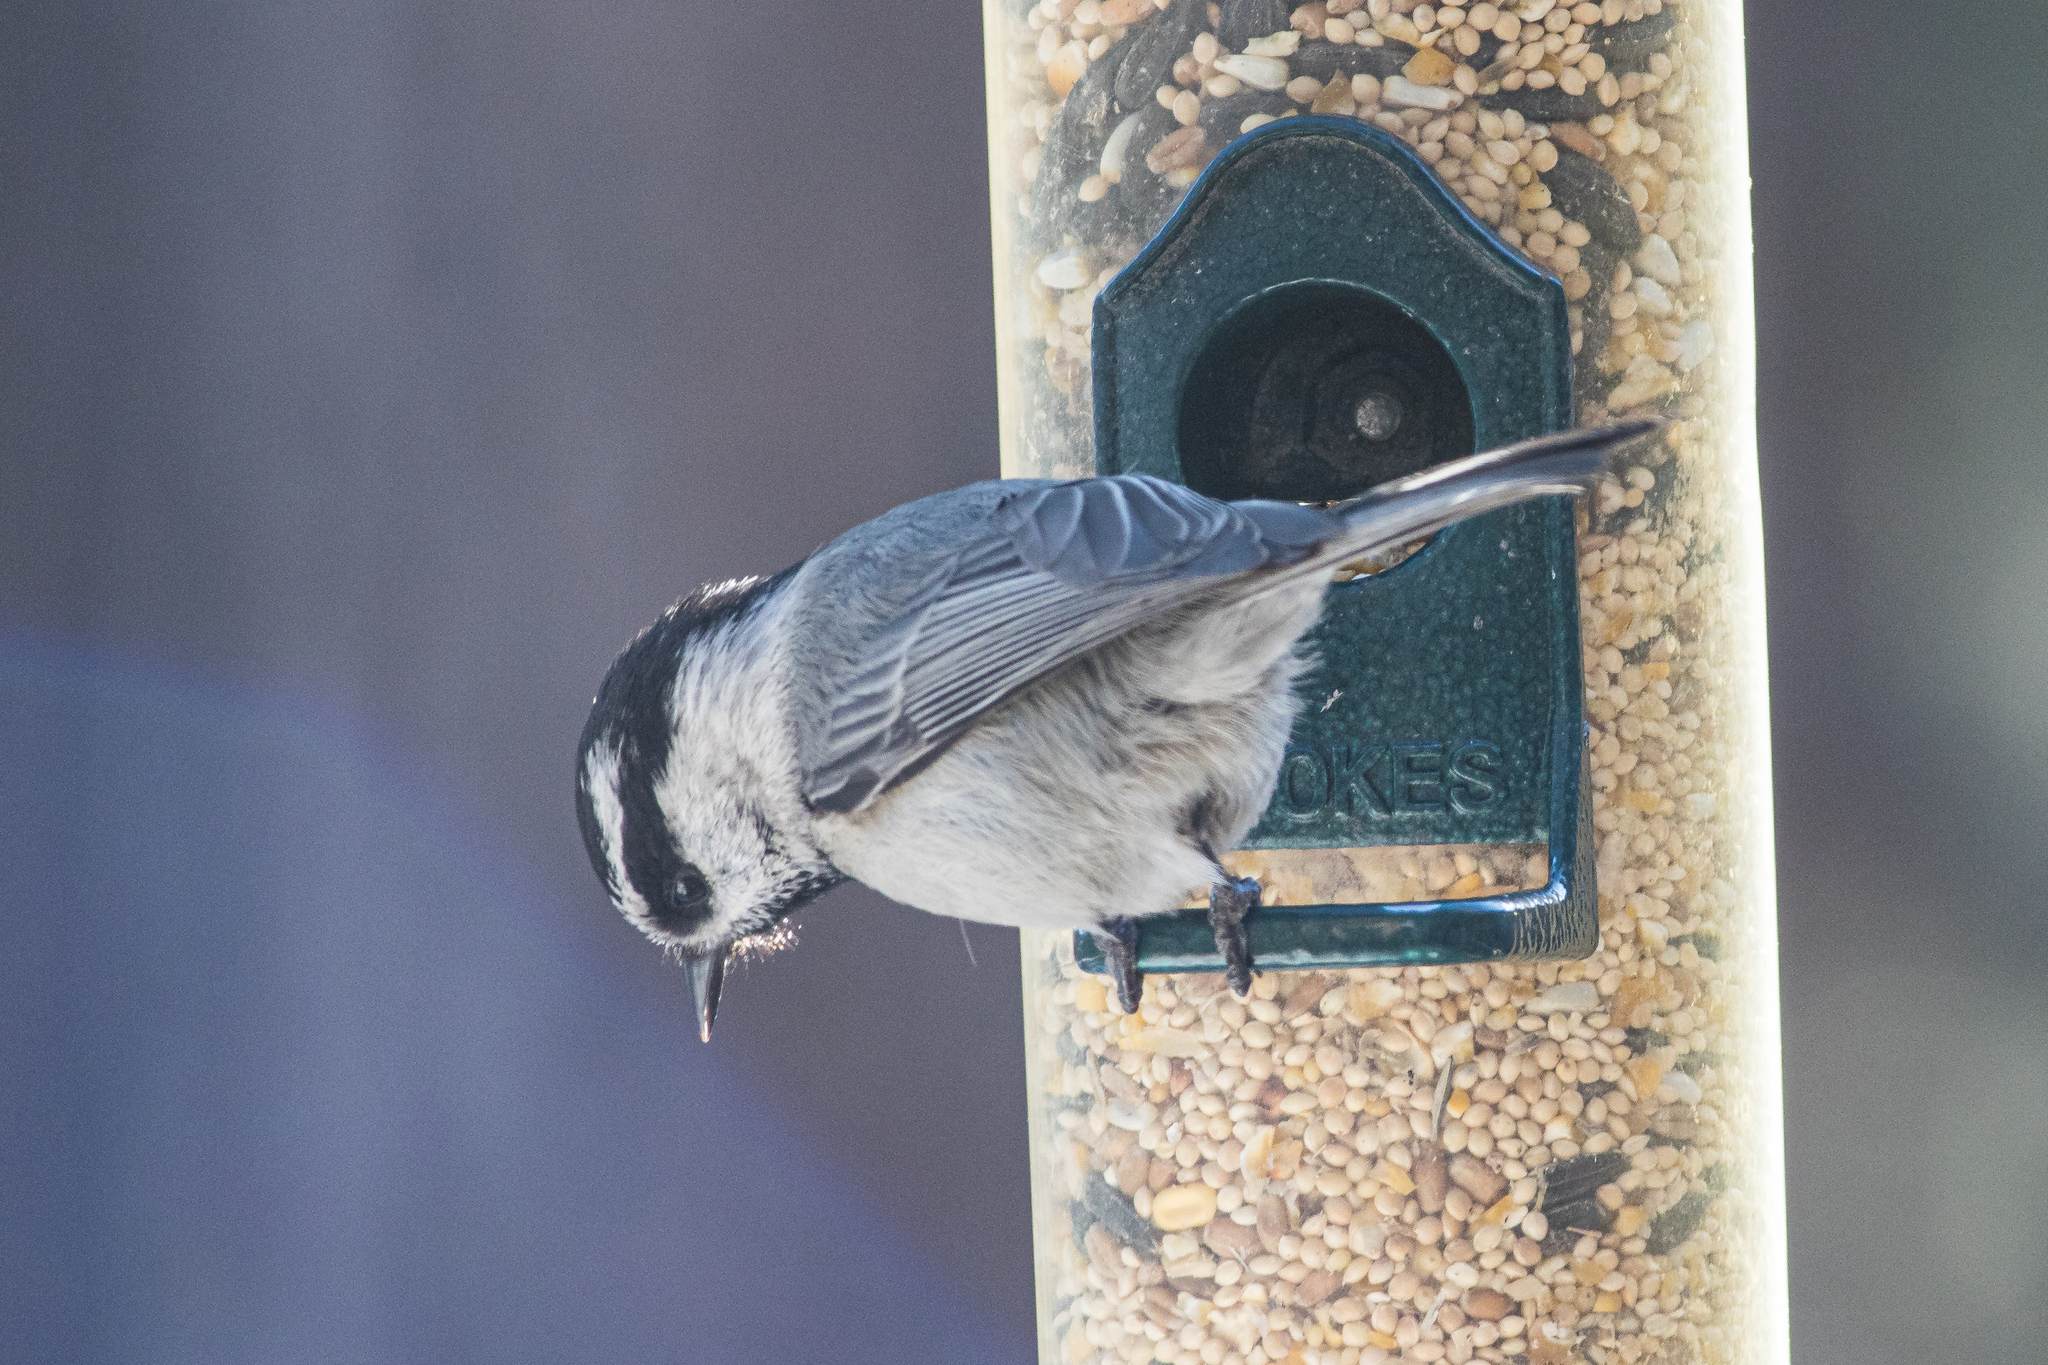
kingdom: Animalia
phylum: Chordata
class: Aves
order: Passeriformes
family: Paridae
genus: Poecile
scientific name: Poecile gambeli
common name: Mountain chickadee
